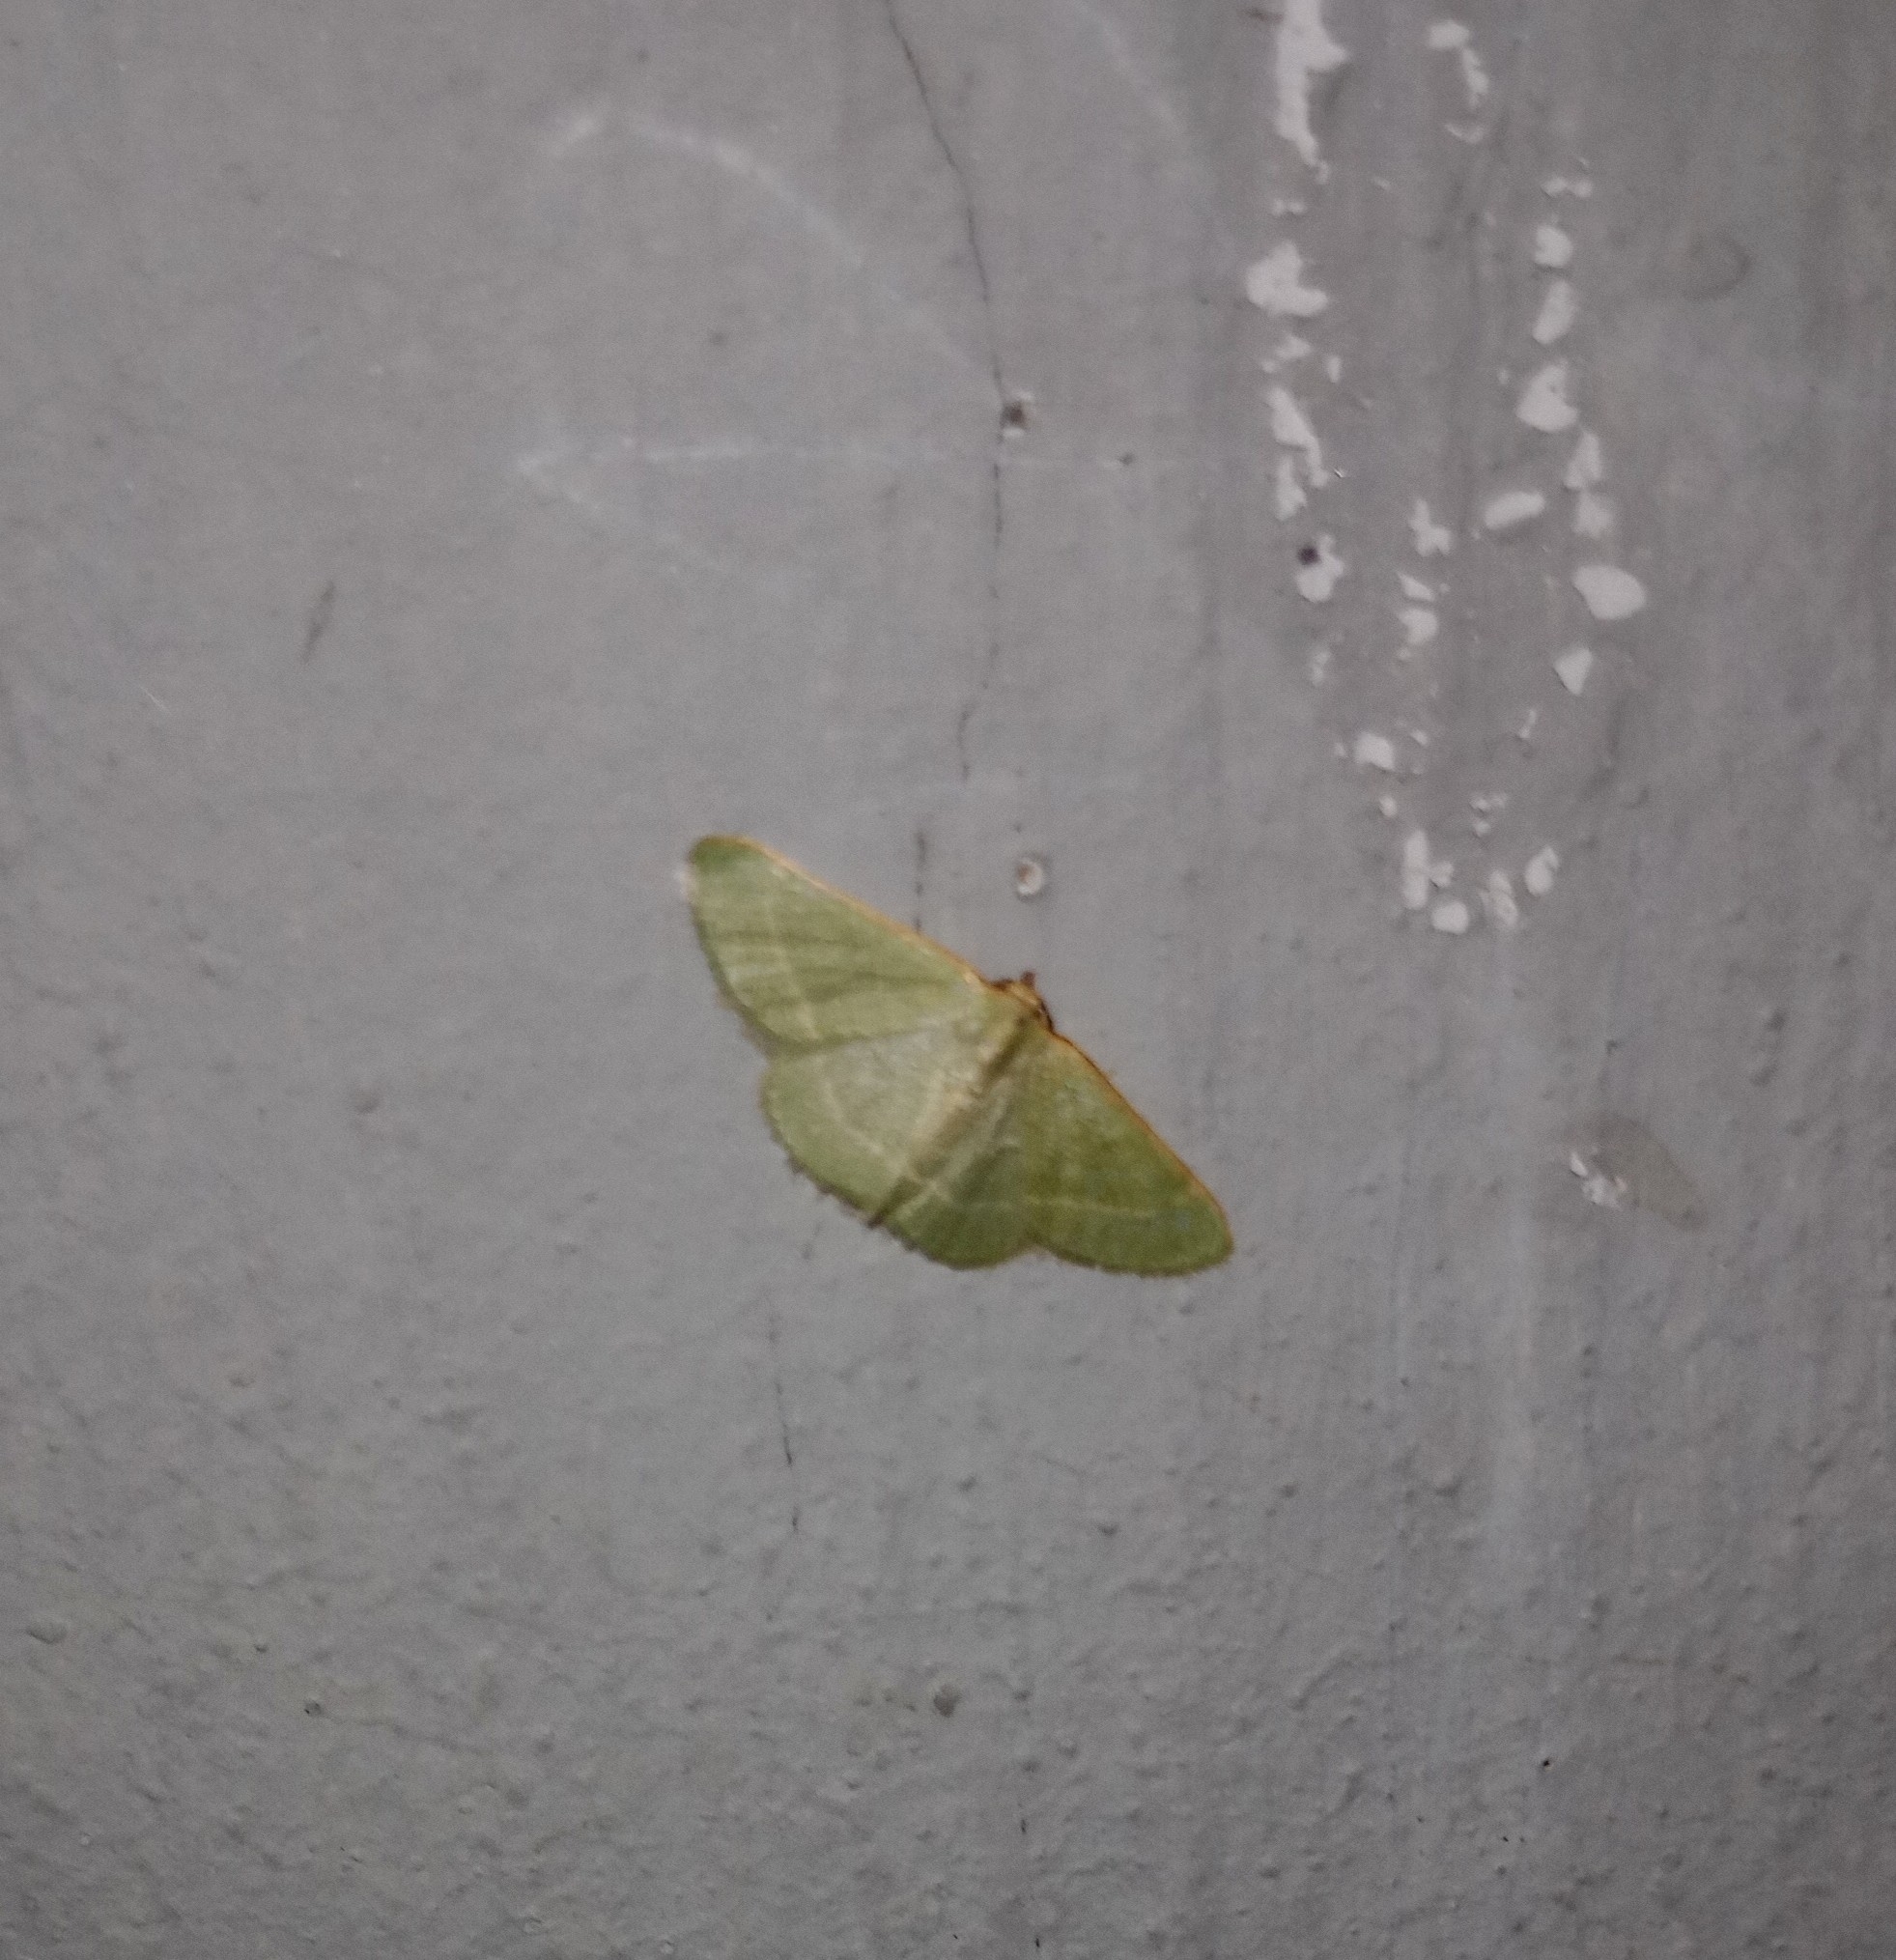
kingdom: Animalia
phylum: Arthropoda
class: Insecta
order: Lepidoptera
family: Geometridae
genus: Microloxia
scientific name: Microloxia indecretata
